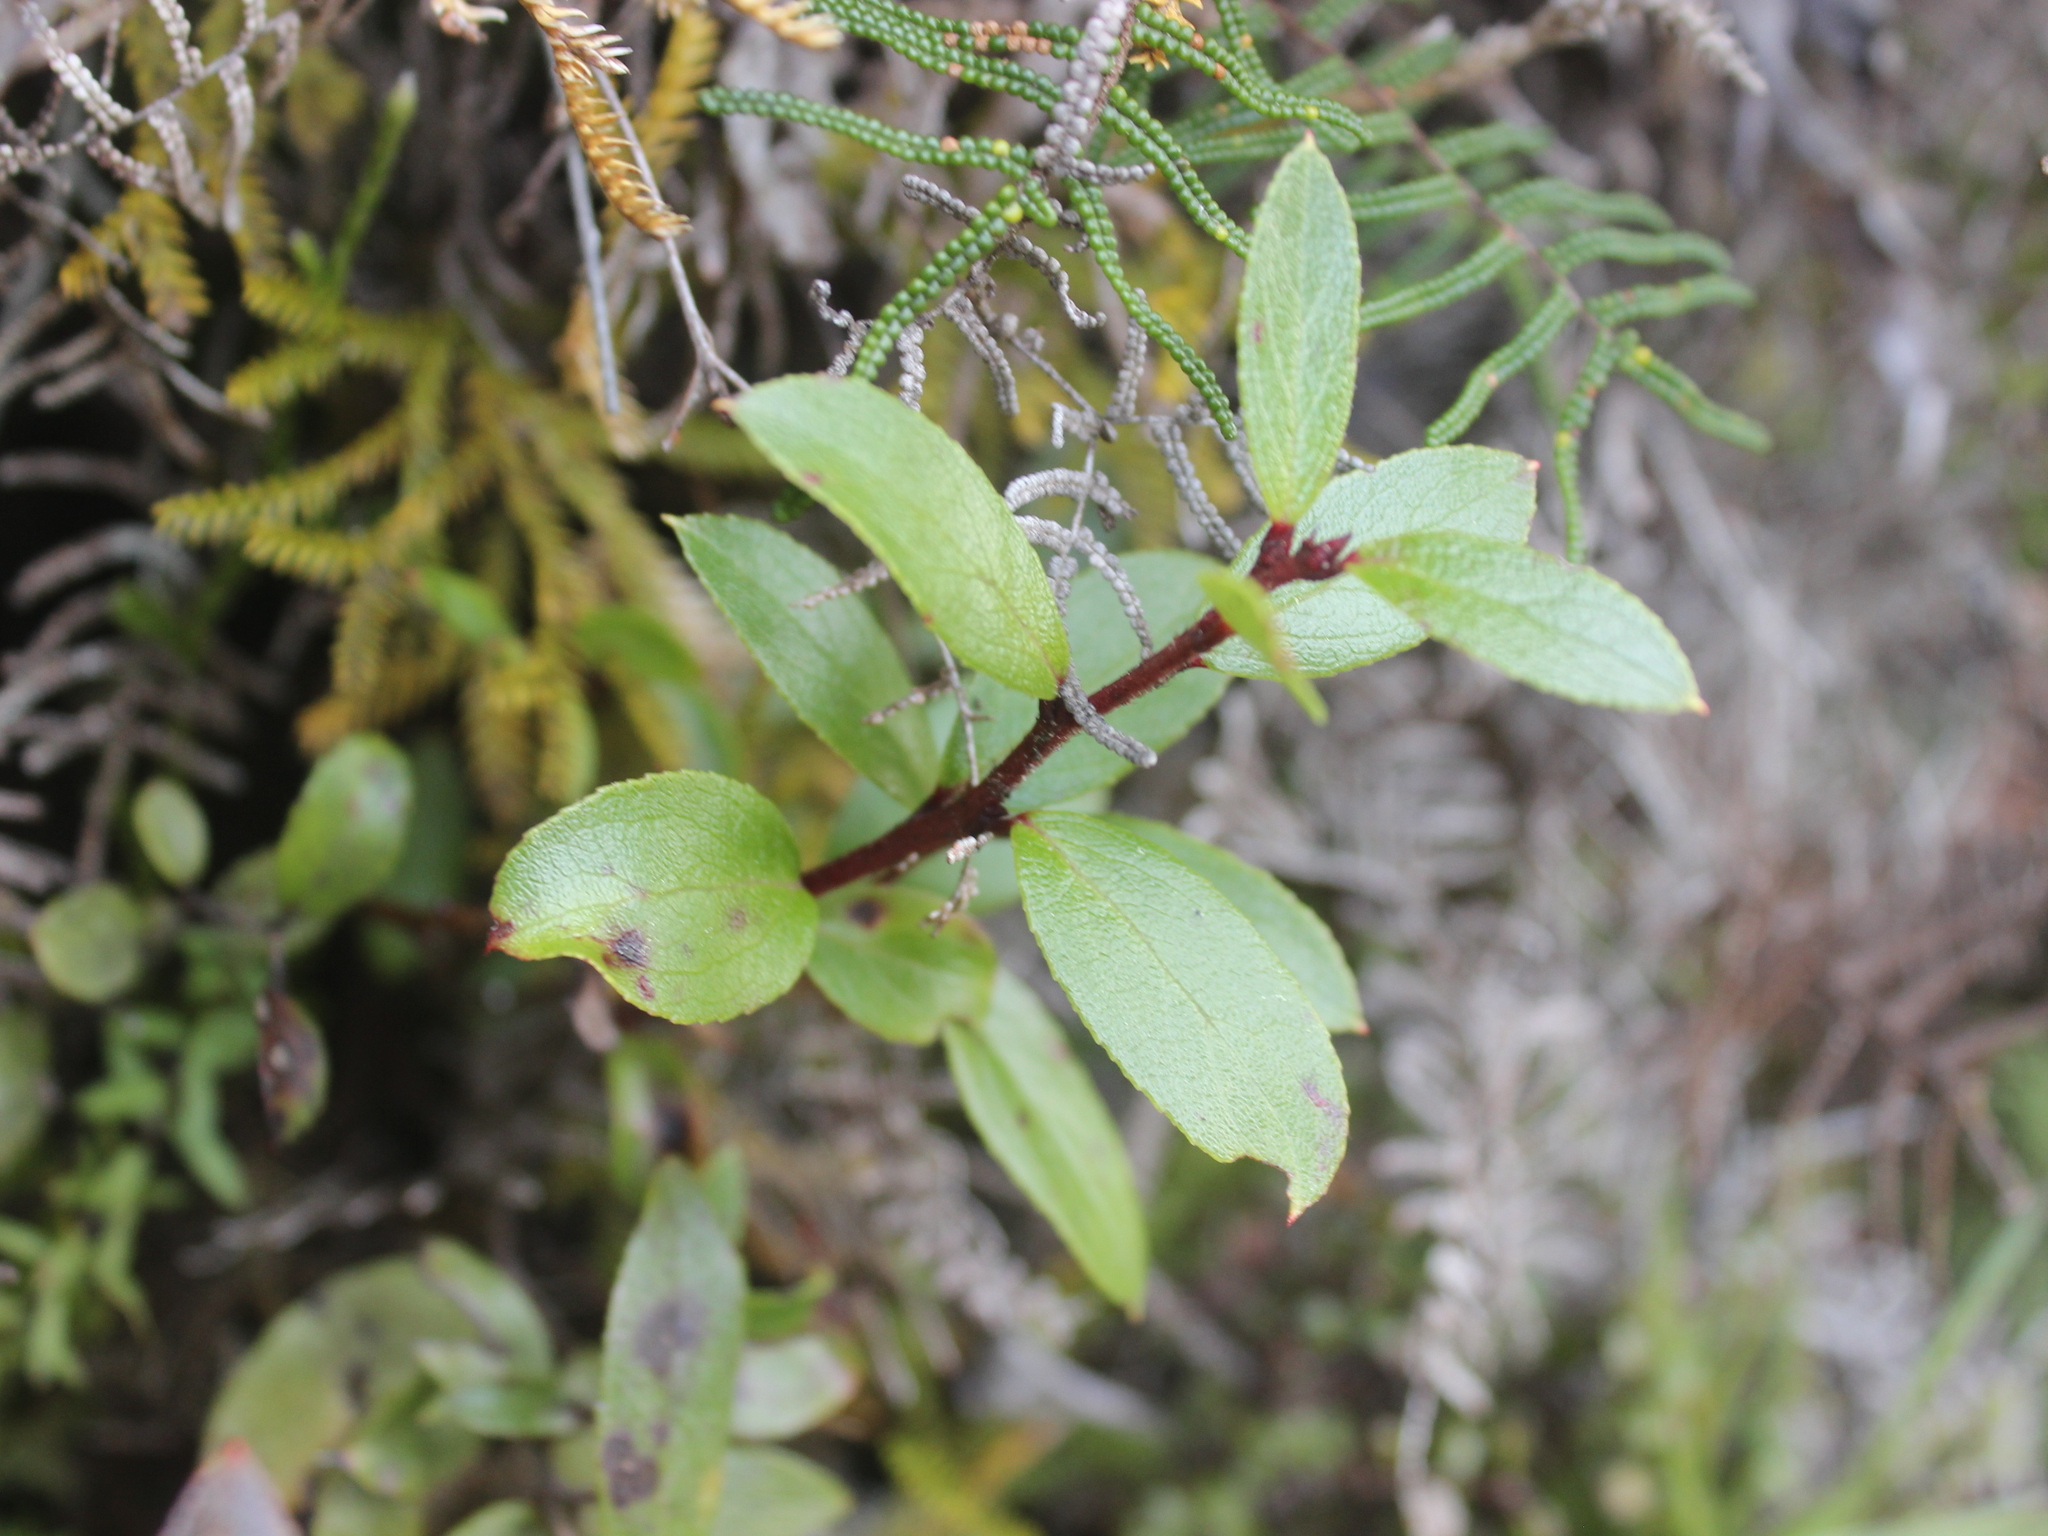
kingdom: Plantae
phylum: Tracheophyta
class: Magnoliopsida
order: Ericales
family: Ericaceae
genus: Gaultheria
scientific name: Gaultheria paniculata
